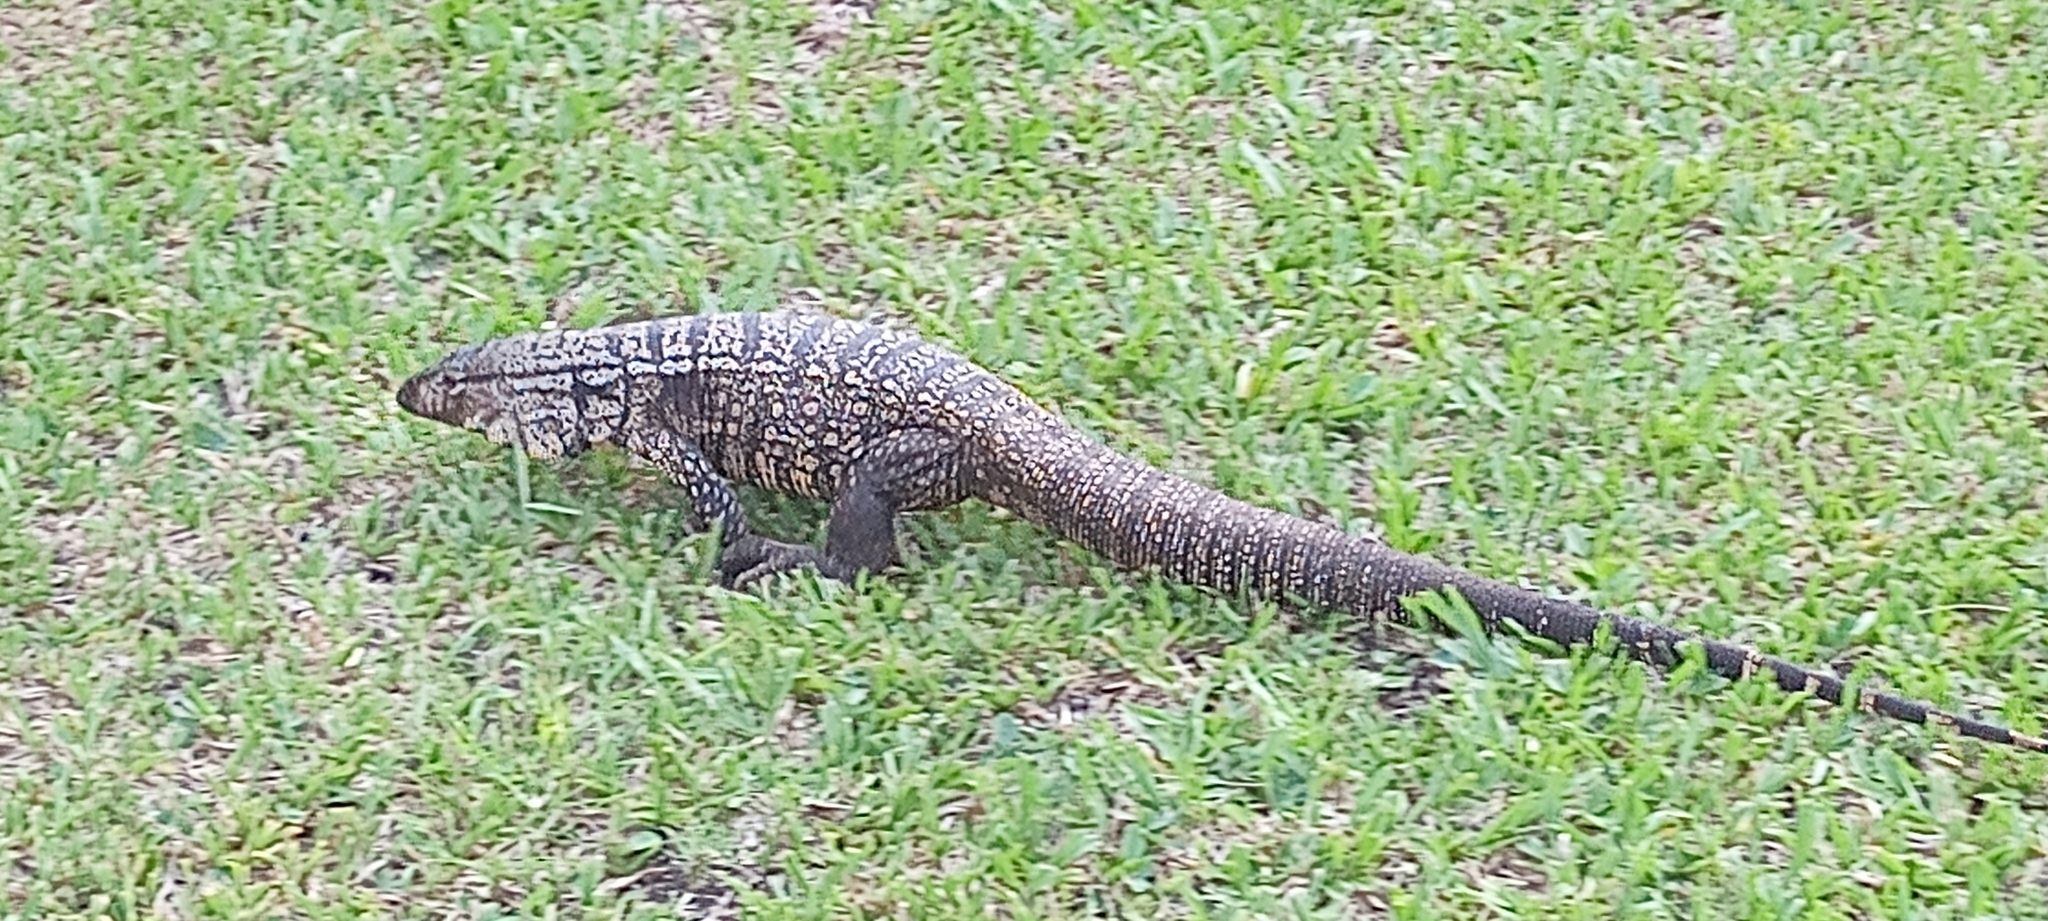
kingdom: Animalia
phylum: Chordata
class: Squamata
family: Teiidae
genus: Salvator
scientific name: Salvator merianae
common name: Argentine black and white tegu
